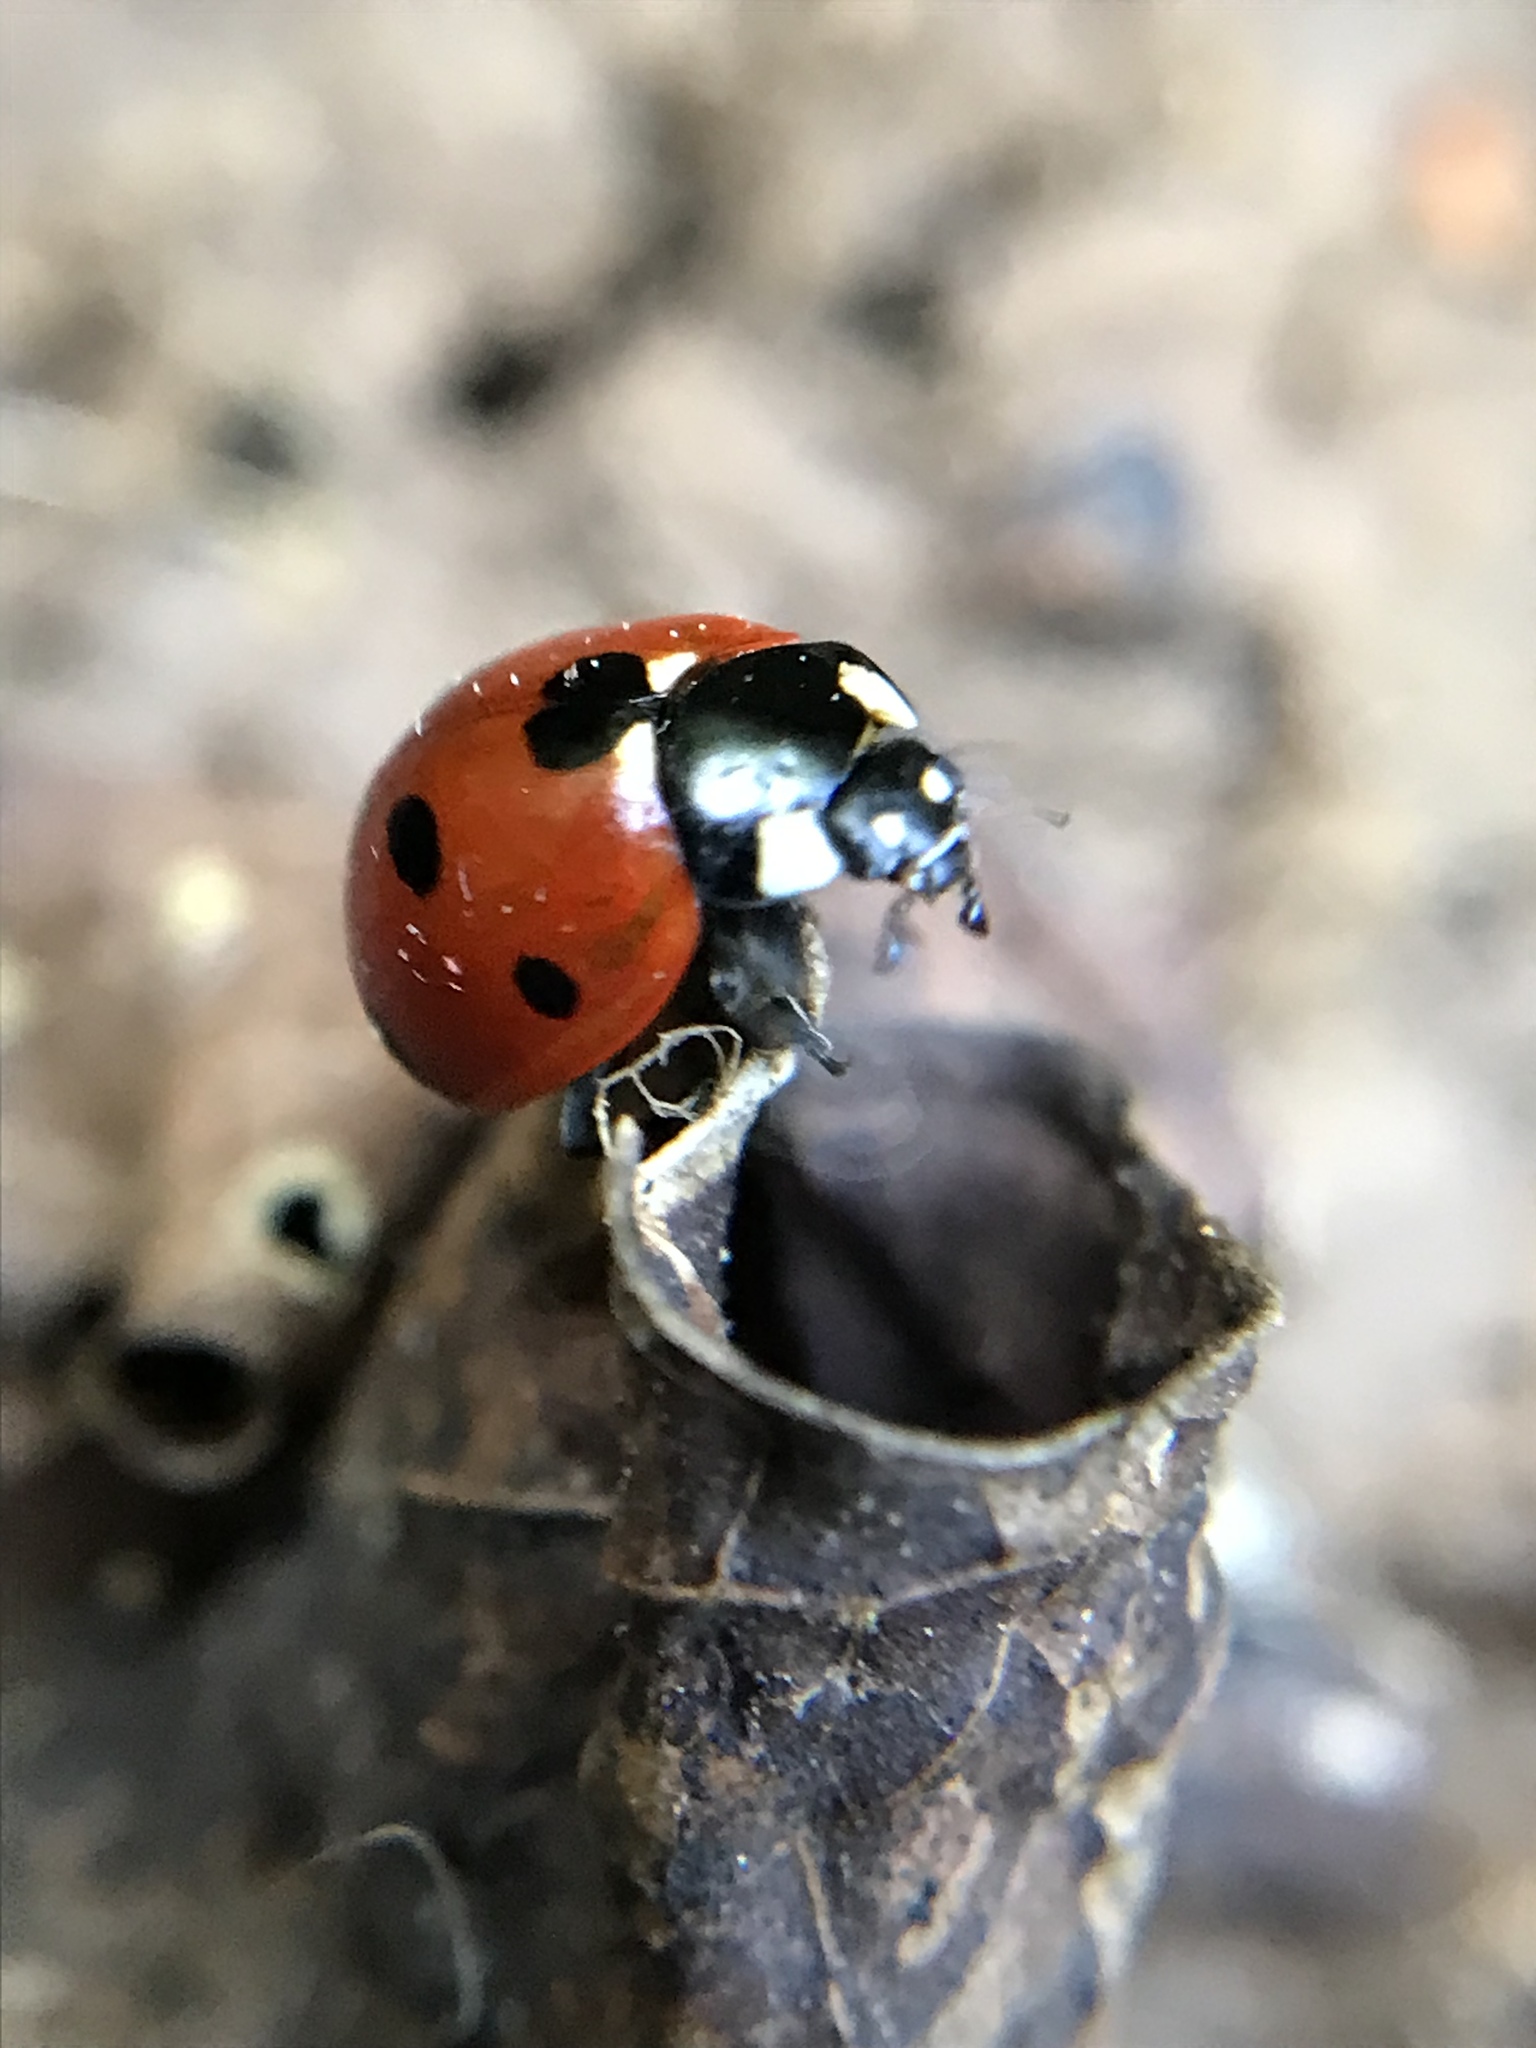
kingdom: Animalia
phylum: Arthropoda
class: Insecta
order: Coleoptera
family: Coccinellidae
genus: Coccinella
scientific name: Coccinella septempunctata
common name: Sevenspotted lady beetle
